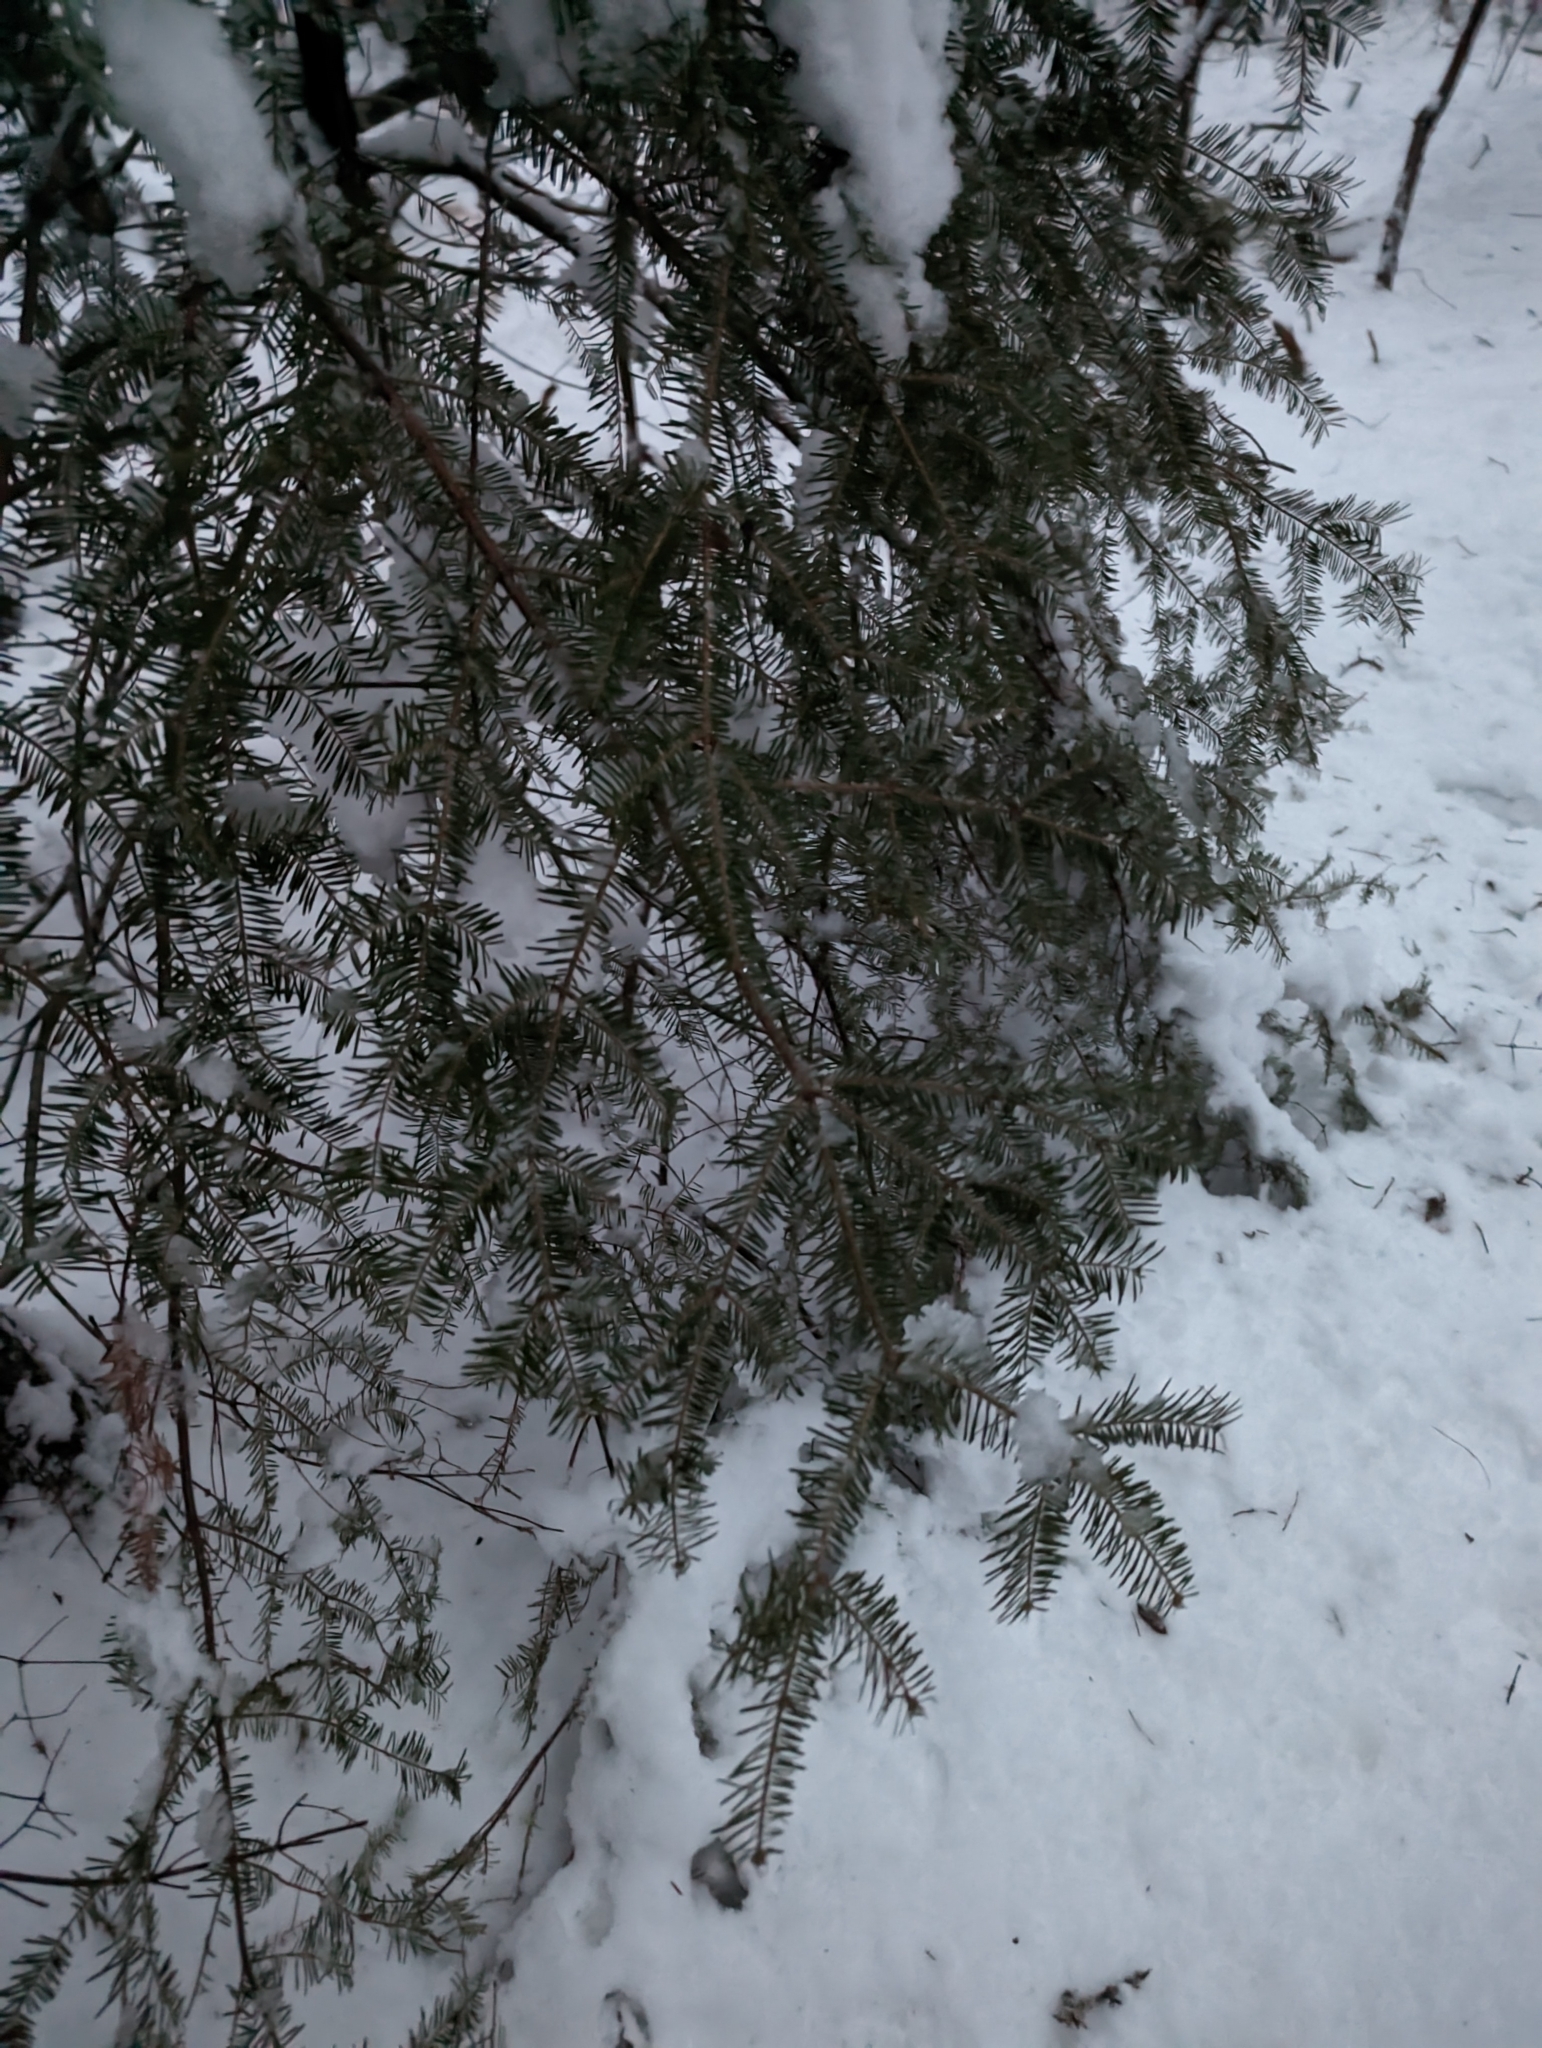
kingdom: Plantae
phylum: Tracheophyta
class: Pinopsida
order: Pinales
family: Pinaceae
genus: Abies
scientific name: Abies balsamea
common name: Balsam fir
